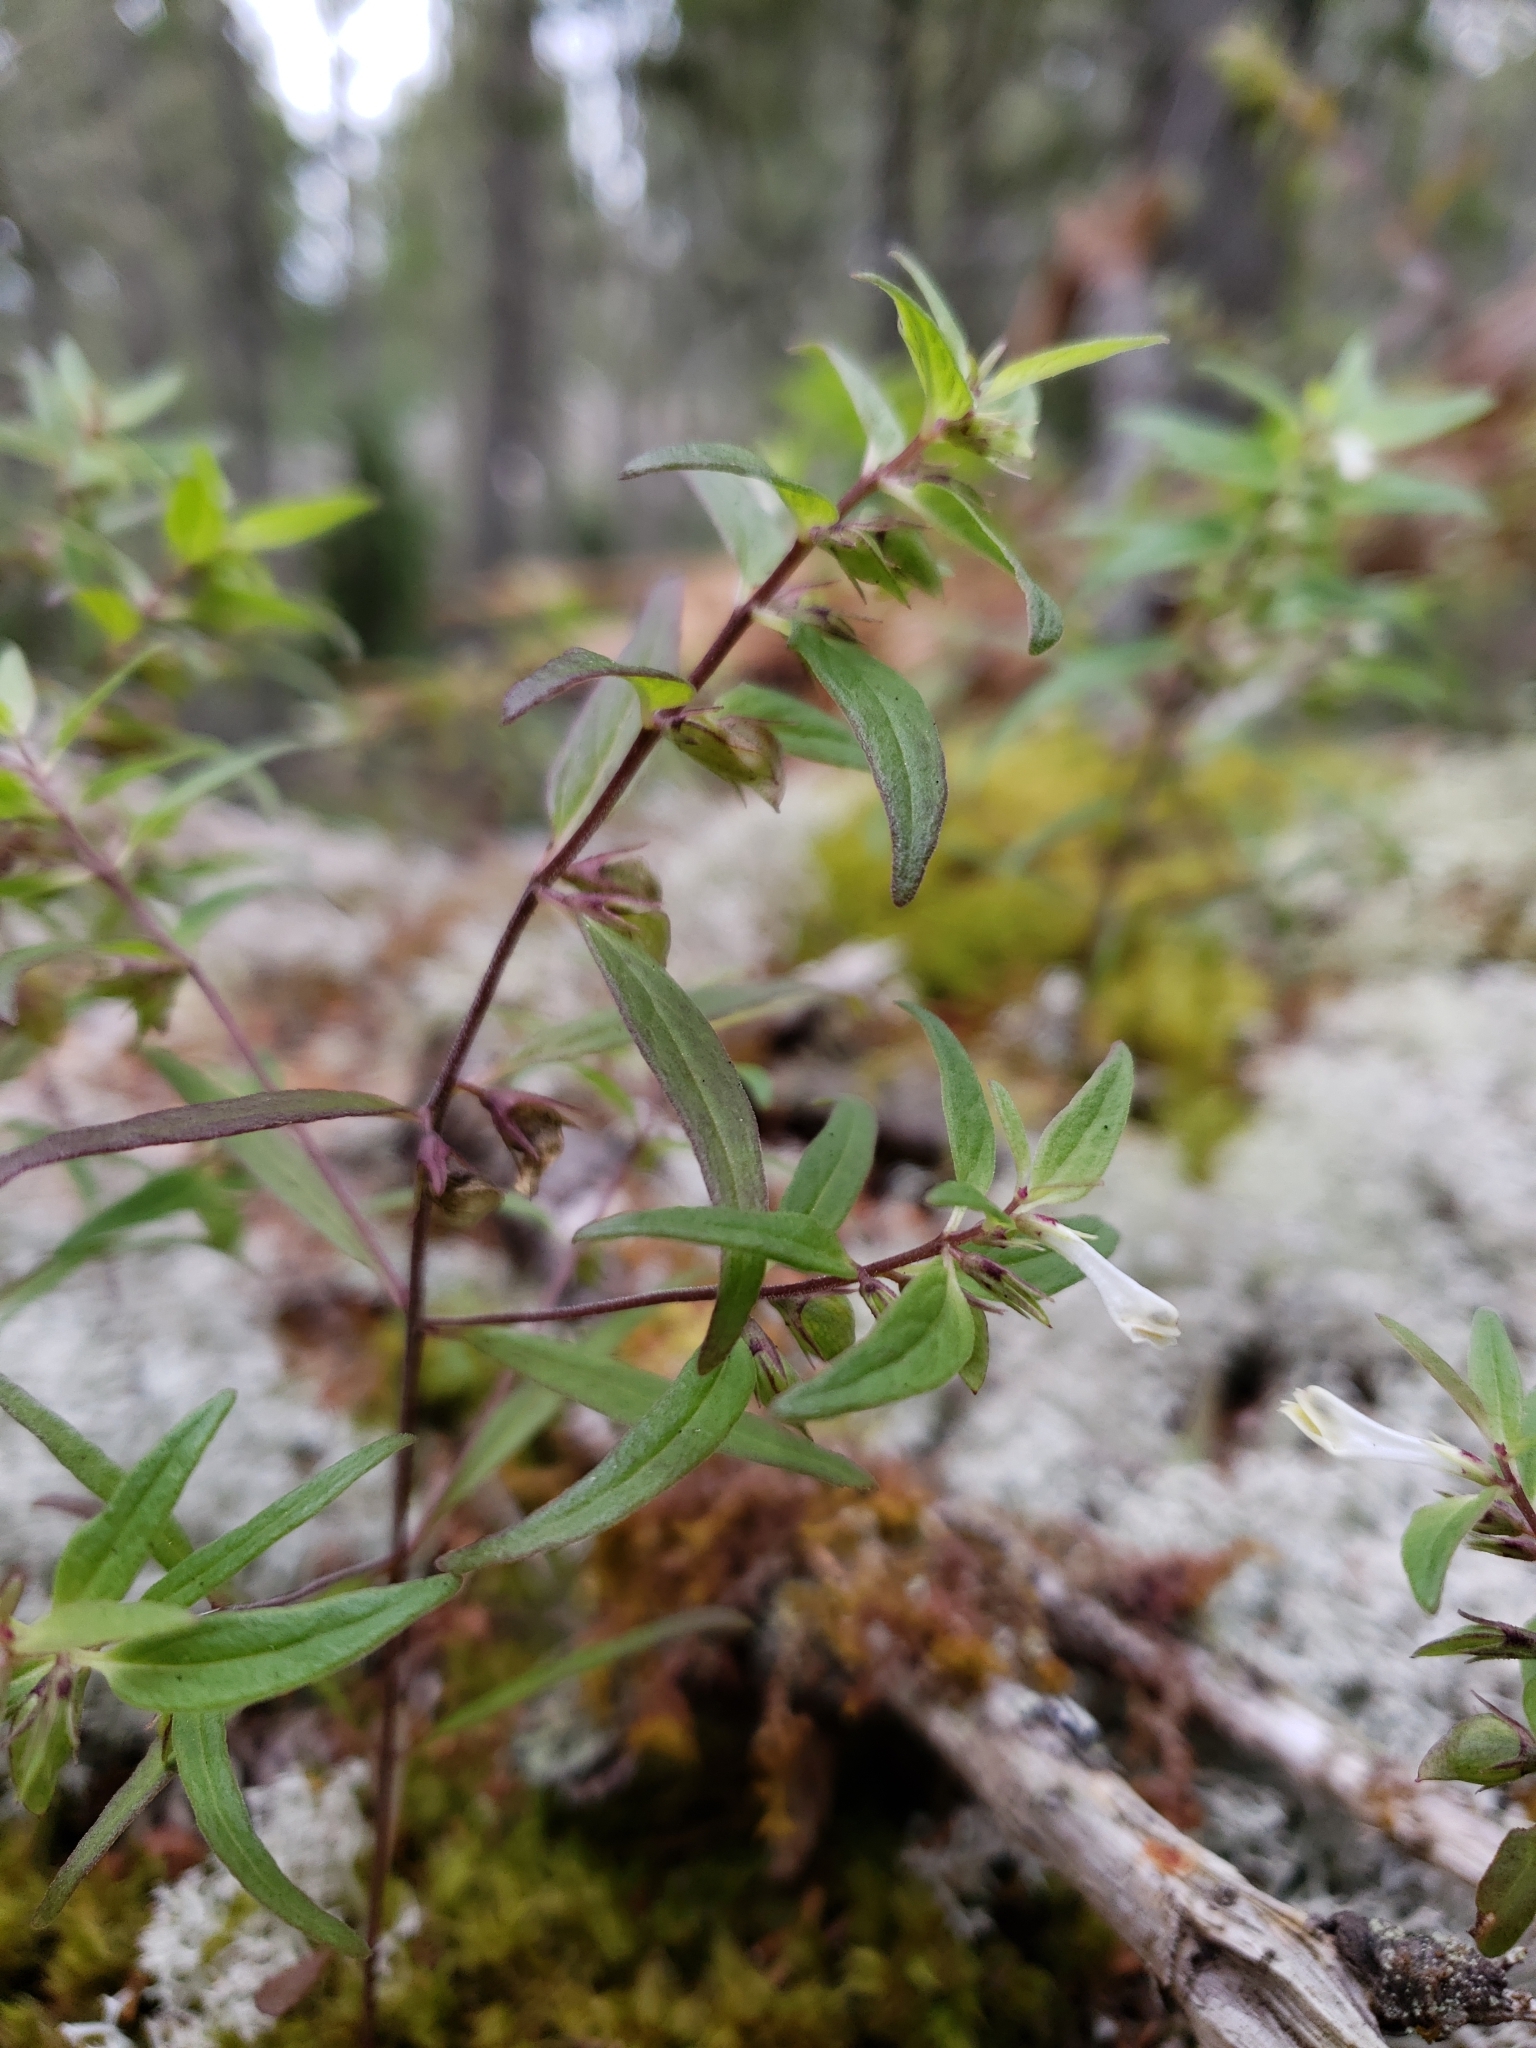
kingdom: Plantae
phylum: Tracheophyta
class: Magnoliopsida
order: Lamiales
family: Orobanchaceae
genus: Melampyrum
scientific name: Melampyrum lineare
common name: American cow-wheat
